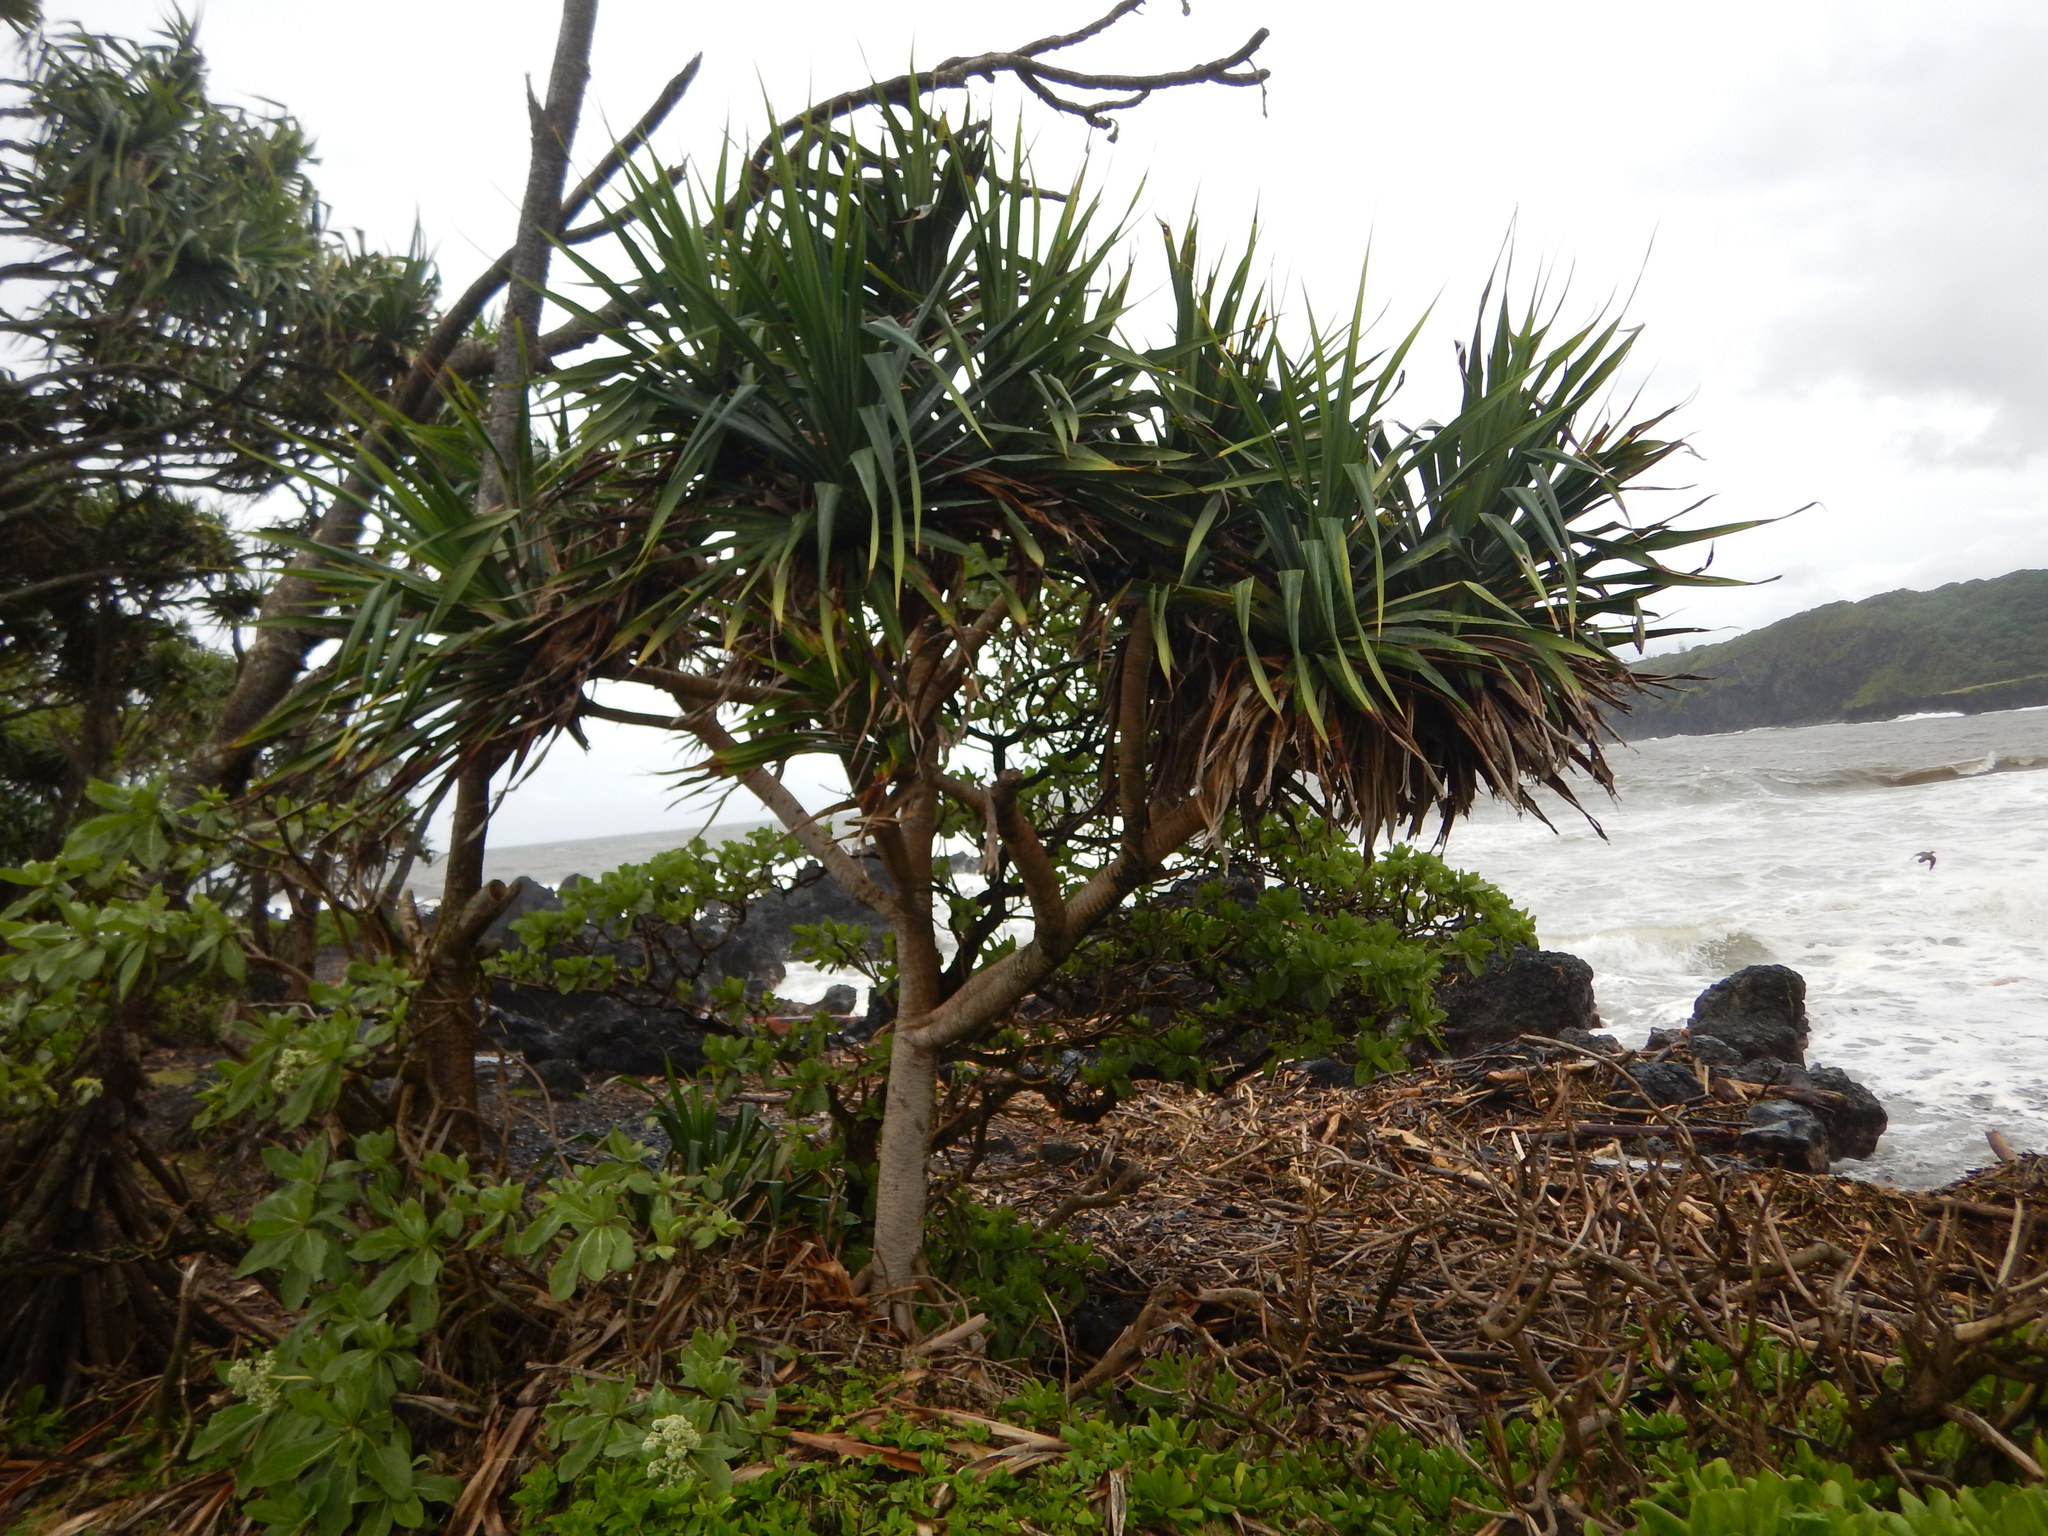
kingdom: Plantae
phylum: Tracheophyta
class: Liliopsida
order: Pandanales
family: Pandanaceae
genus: Pandanus
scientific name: Pandanus tectorius
